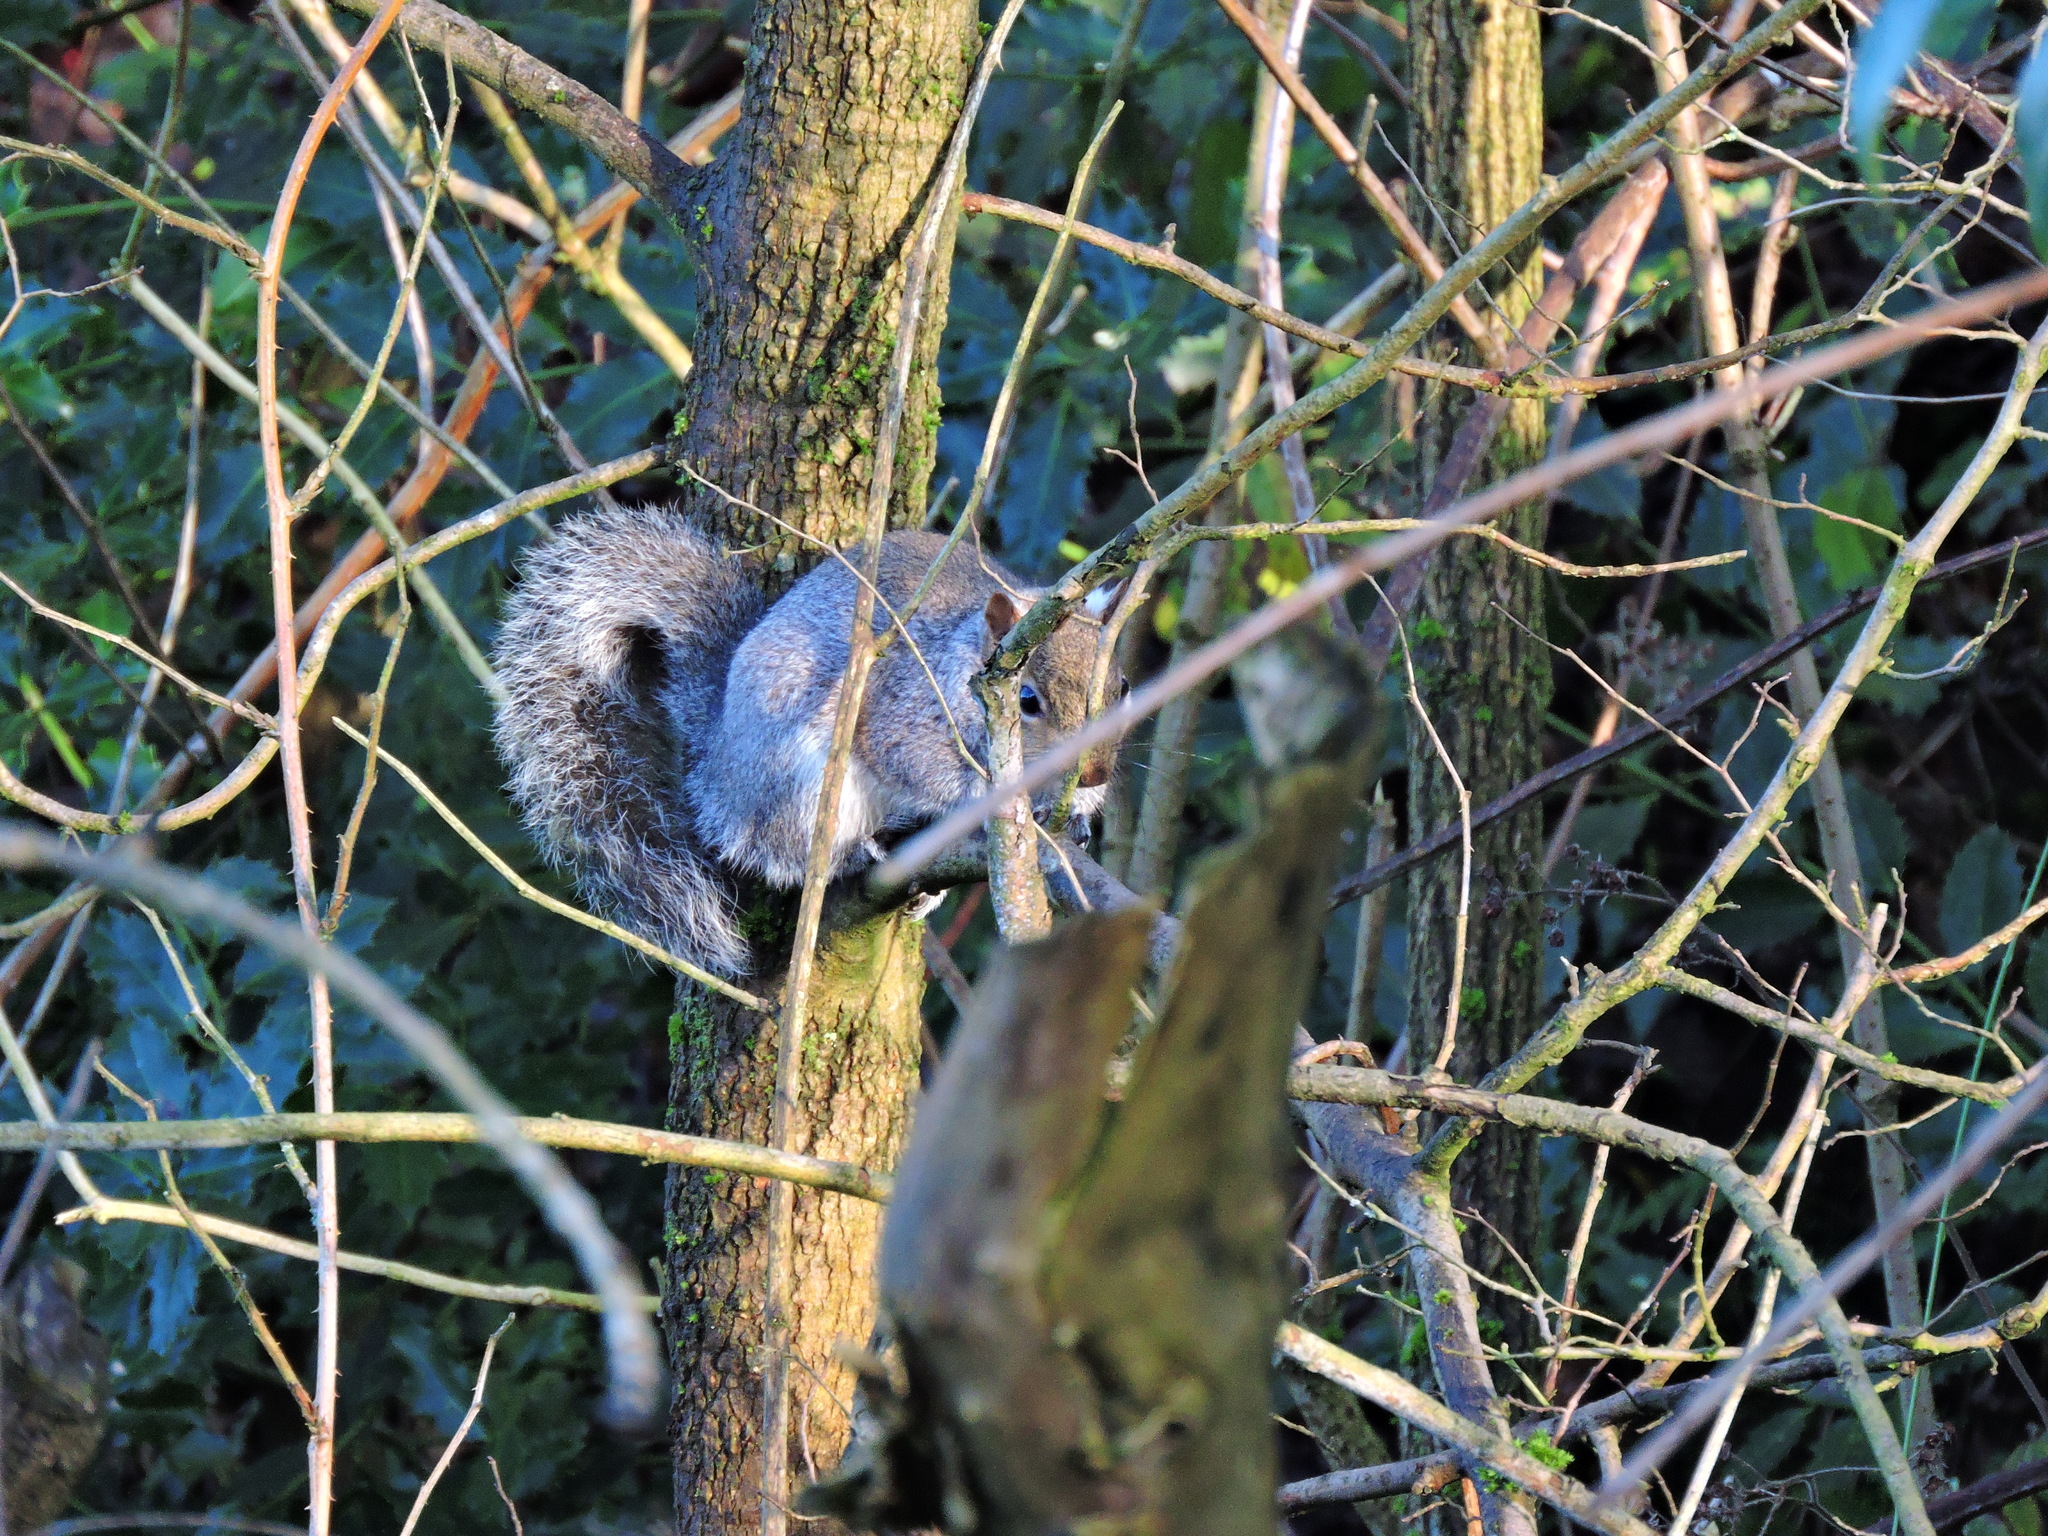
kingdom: Animalia
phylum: Chordata
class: Mammalia
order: Rodentia
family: Sciuridae
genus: Sciurus
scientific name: Sciurus carolinensis
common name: Eastern gray squirrel
